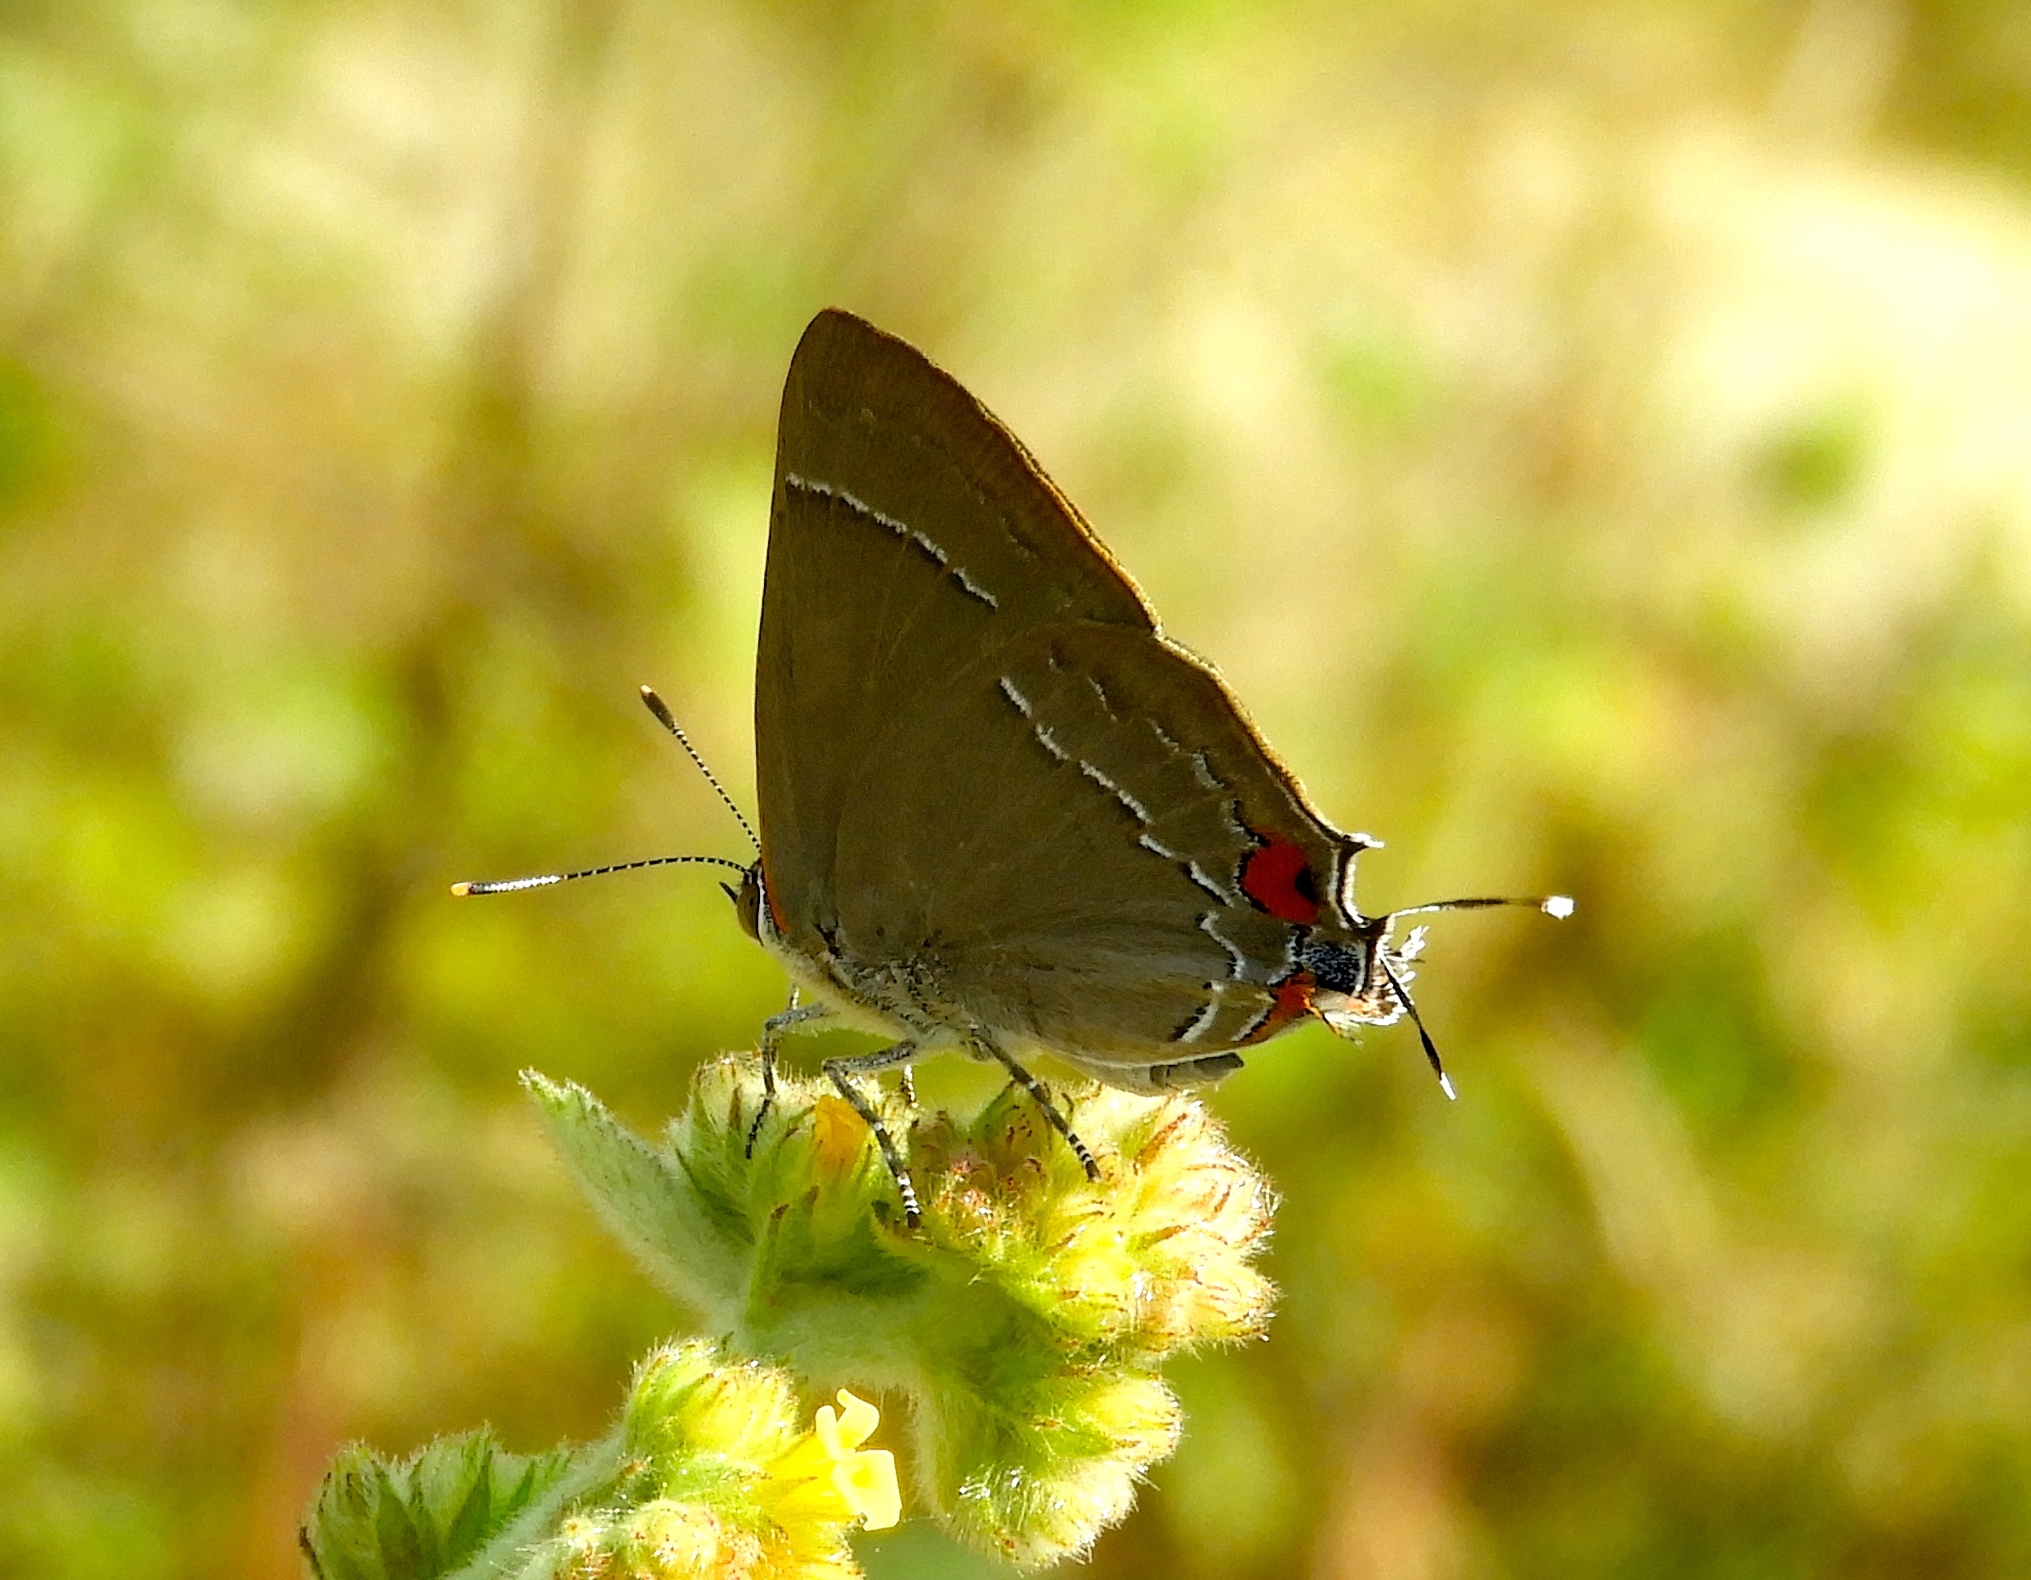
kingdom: Animalia
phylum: Arthropoda
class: Insecta
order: Lepidoptera
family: Lycaenidae
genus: Rekoa
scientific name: Rekoa
